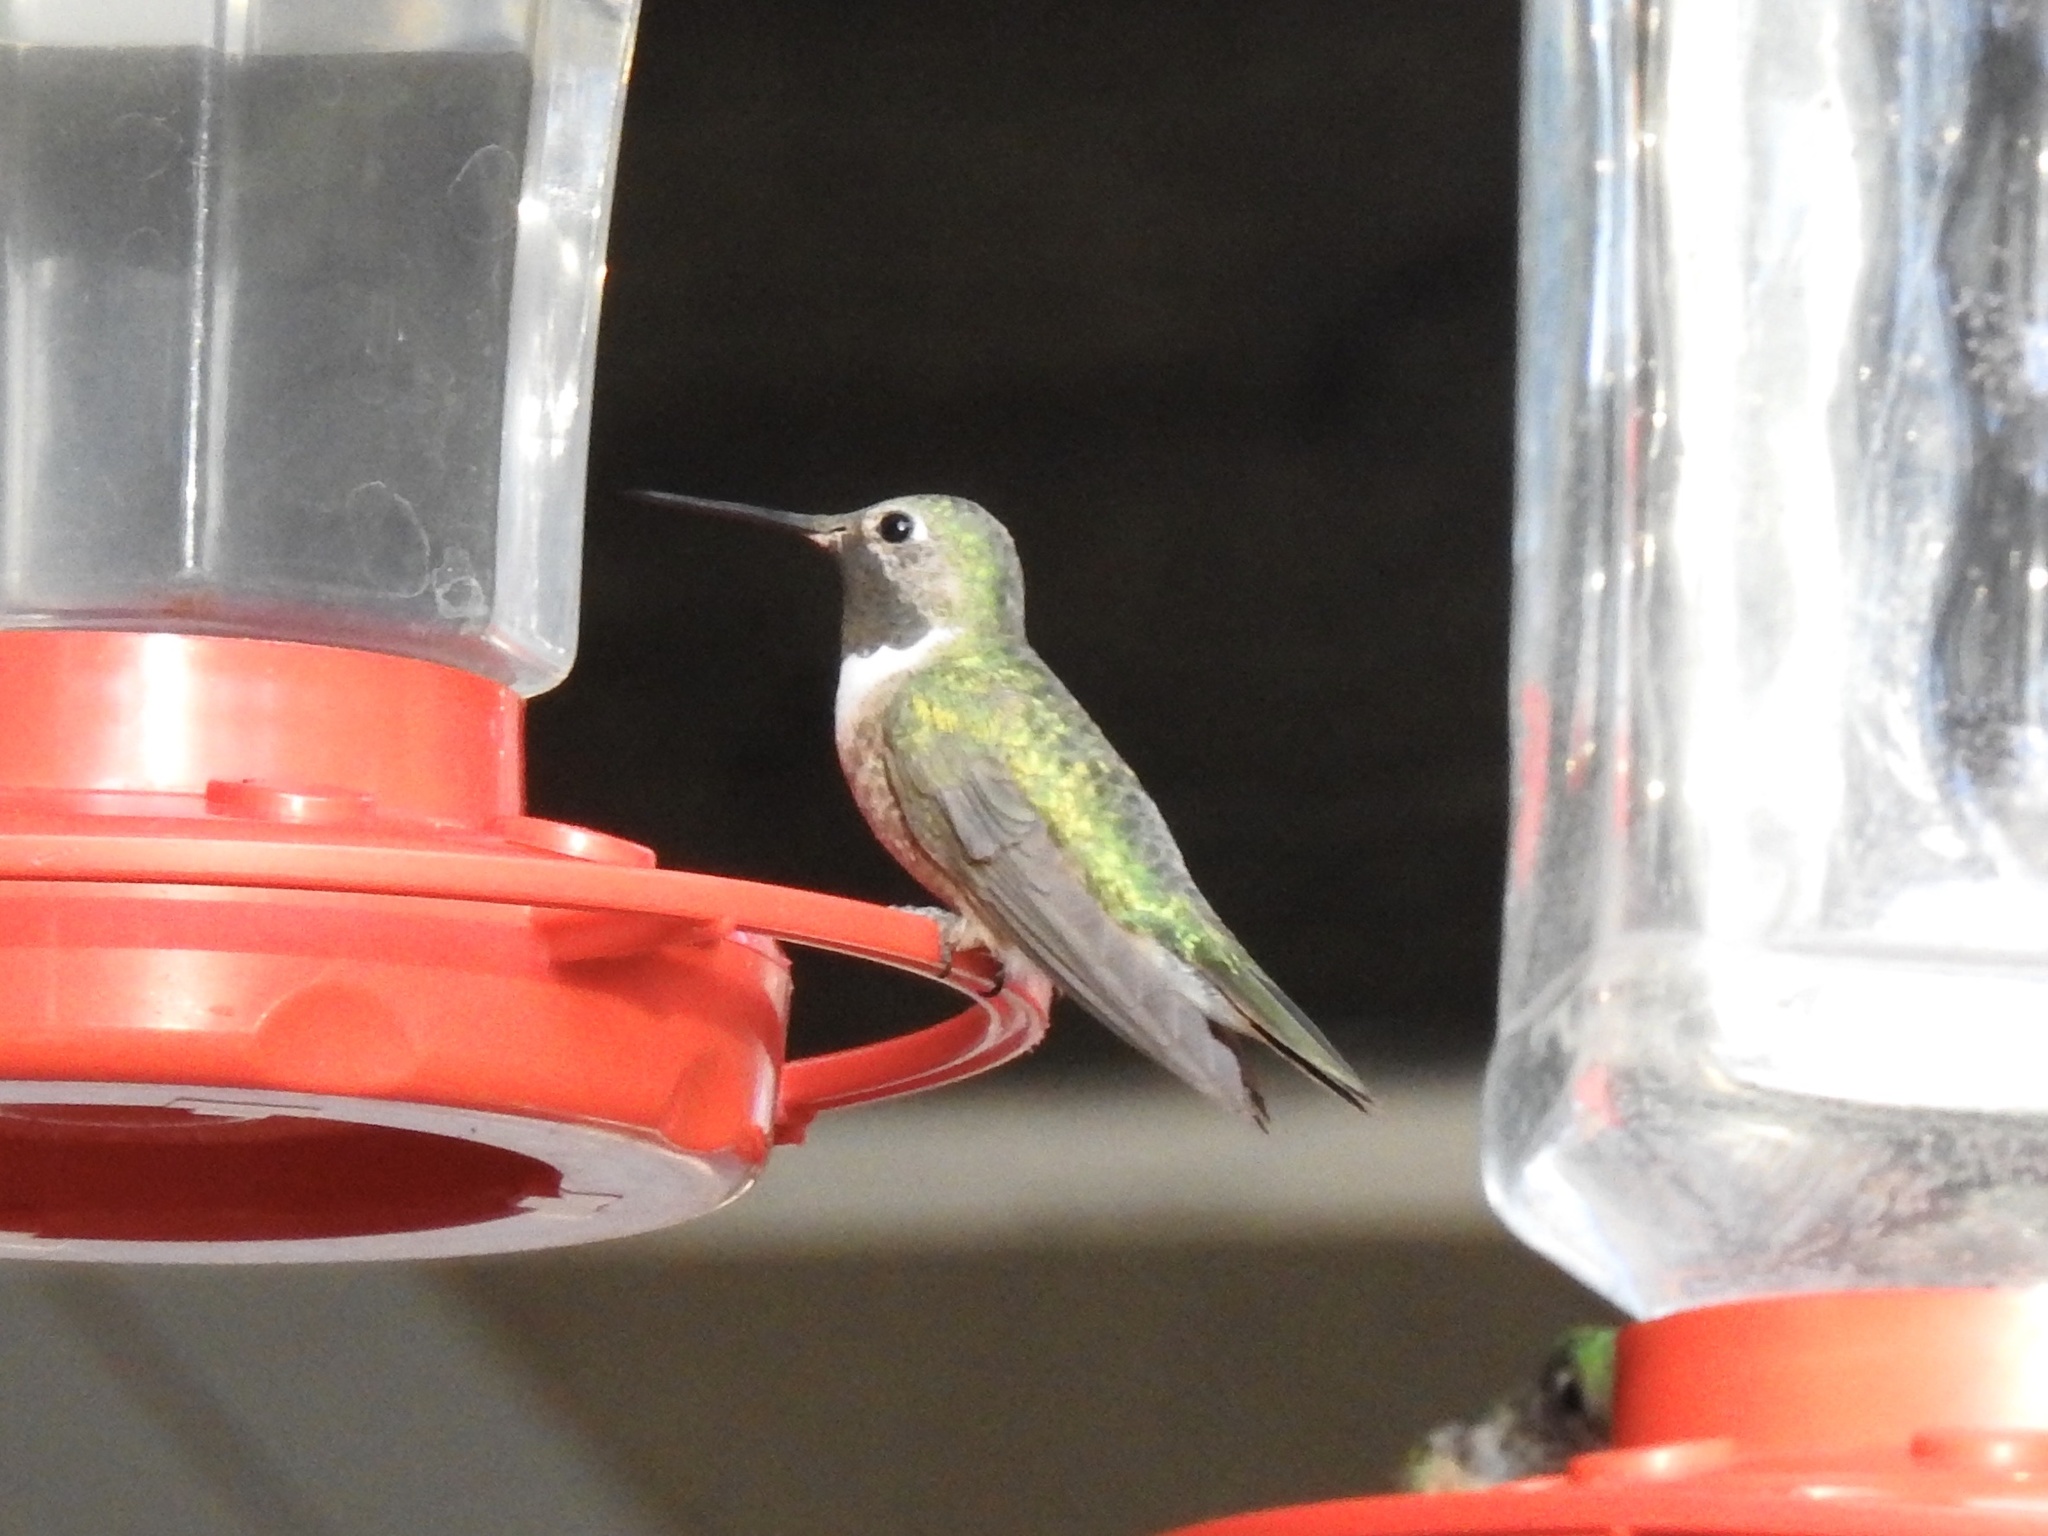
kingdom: Animalia
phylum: Chordata
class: Aves
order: Apodiformes
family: Trochilidae
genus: Selasphorus
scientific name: Selasphorus platycercus
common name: Broad-tailed hummingbird
